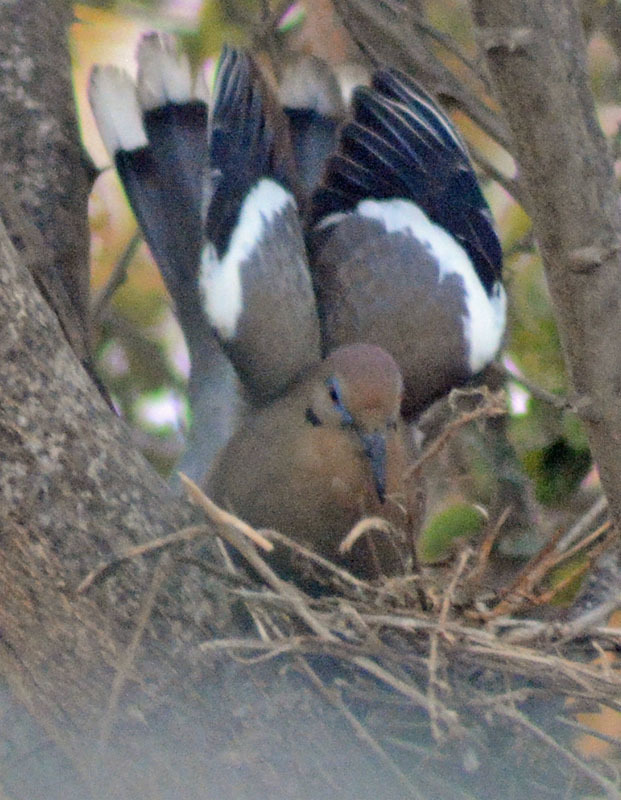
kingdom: Animalia
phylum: Chordata
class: Aves
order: Columbiformes
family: Columbidae
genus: Zenaida
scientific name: Zenaida asiatica
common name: White-winged dove
